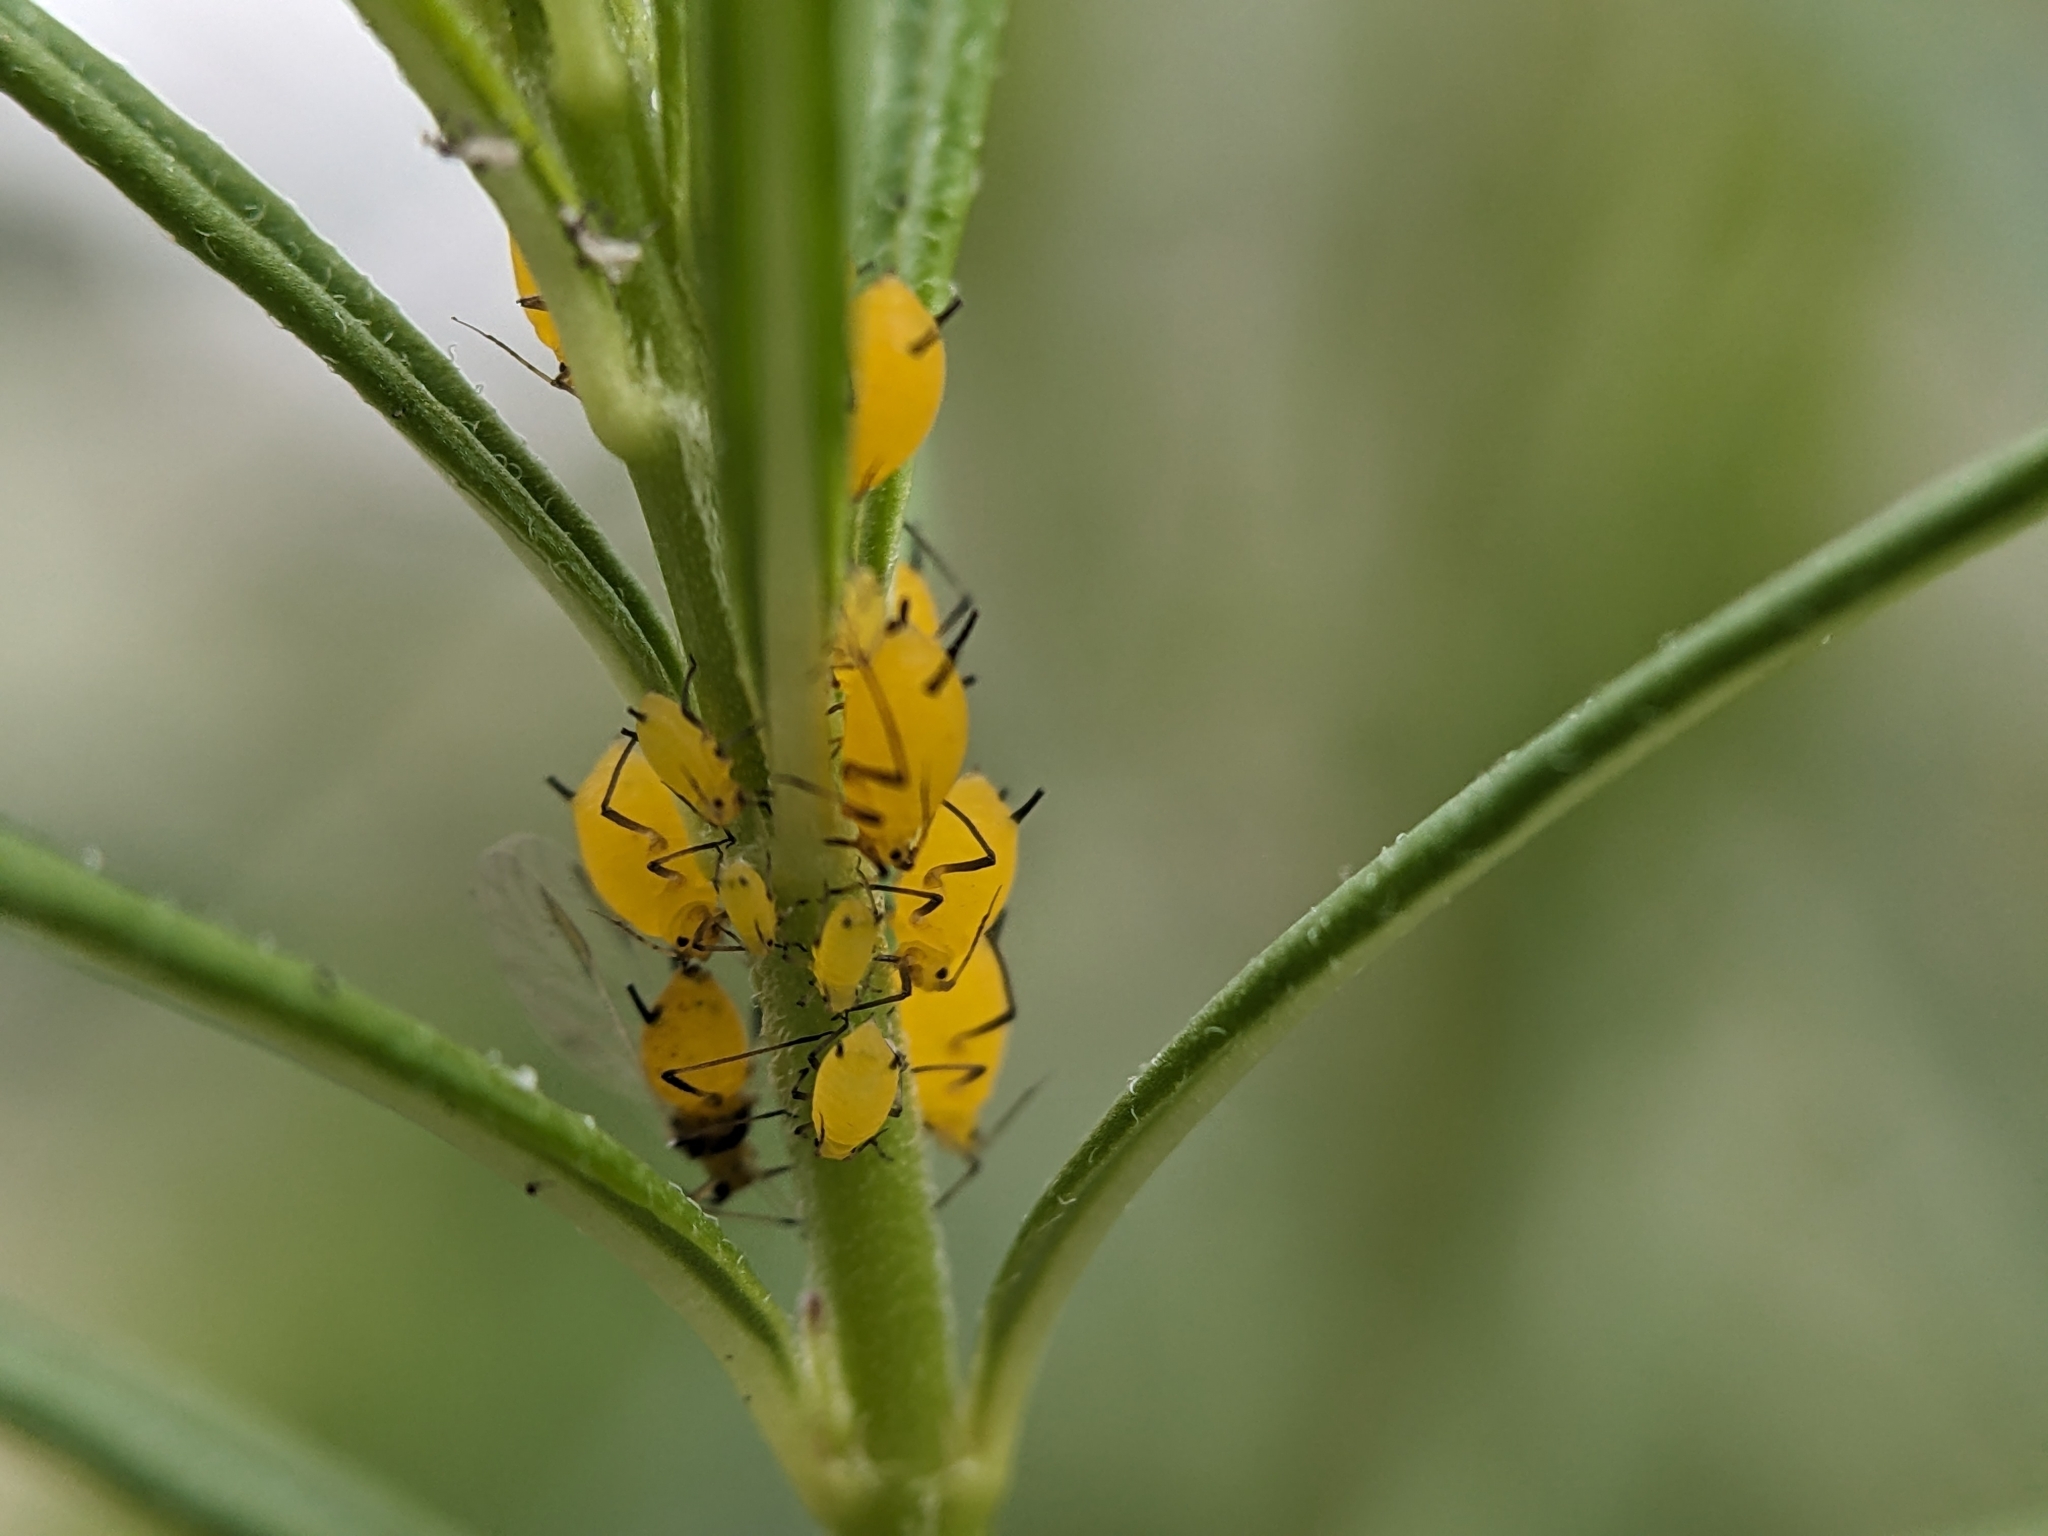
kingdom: Animalia
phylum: Arthropoda
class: Insecta
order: Hemiptera
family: Aphididae
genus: Aphis
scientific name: Aphis nerii
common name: Oleander aphid
